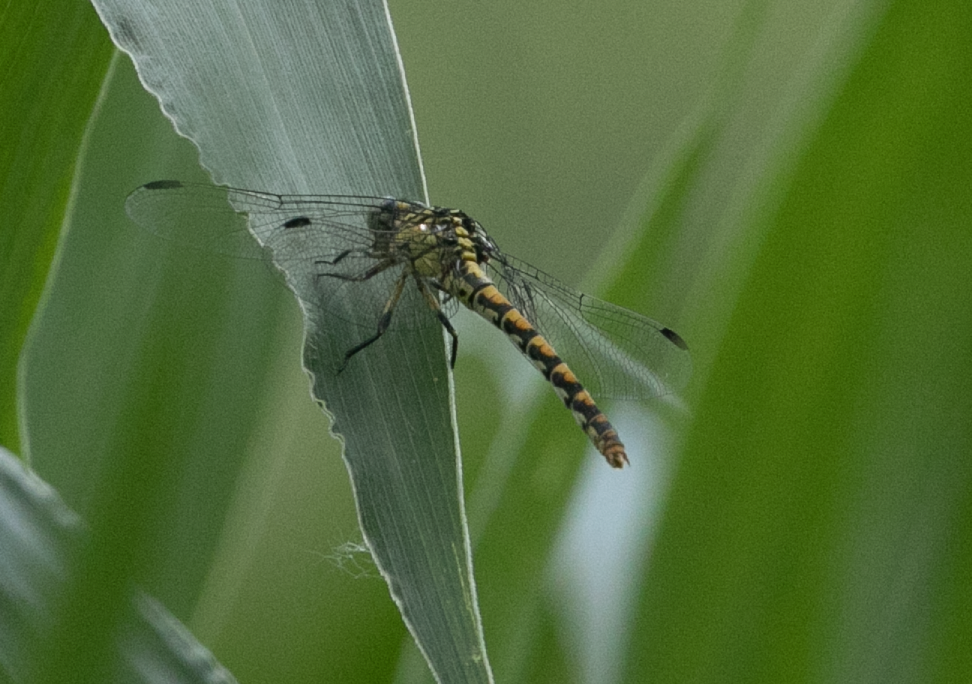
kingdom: Animalia
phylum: Arthropoda
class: Insecta
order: Odonata
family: Gomphidae
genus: Onychogomphus
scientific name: Onychogomphus forcipatus
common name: Small pincertail
